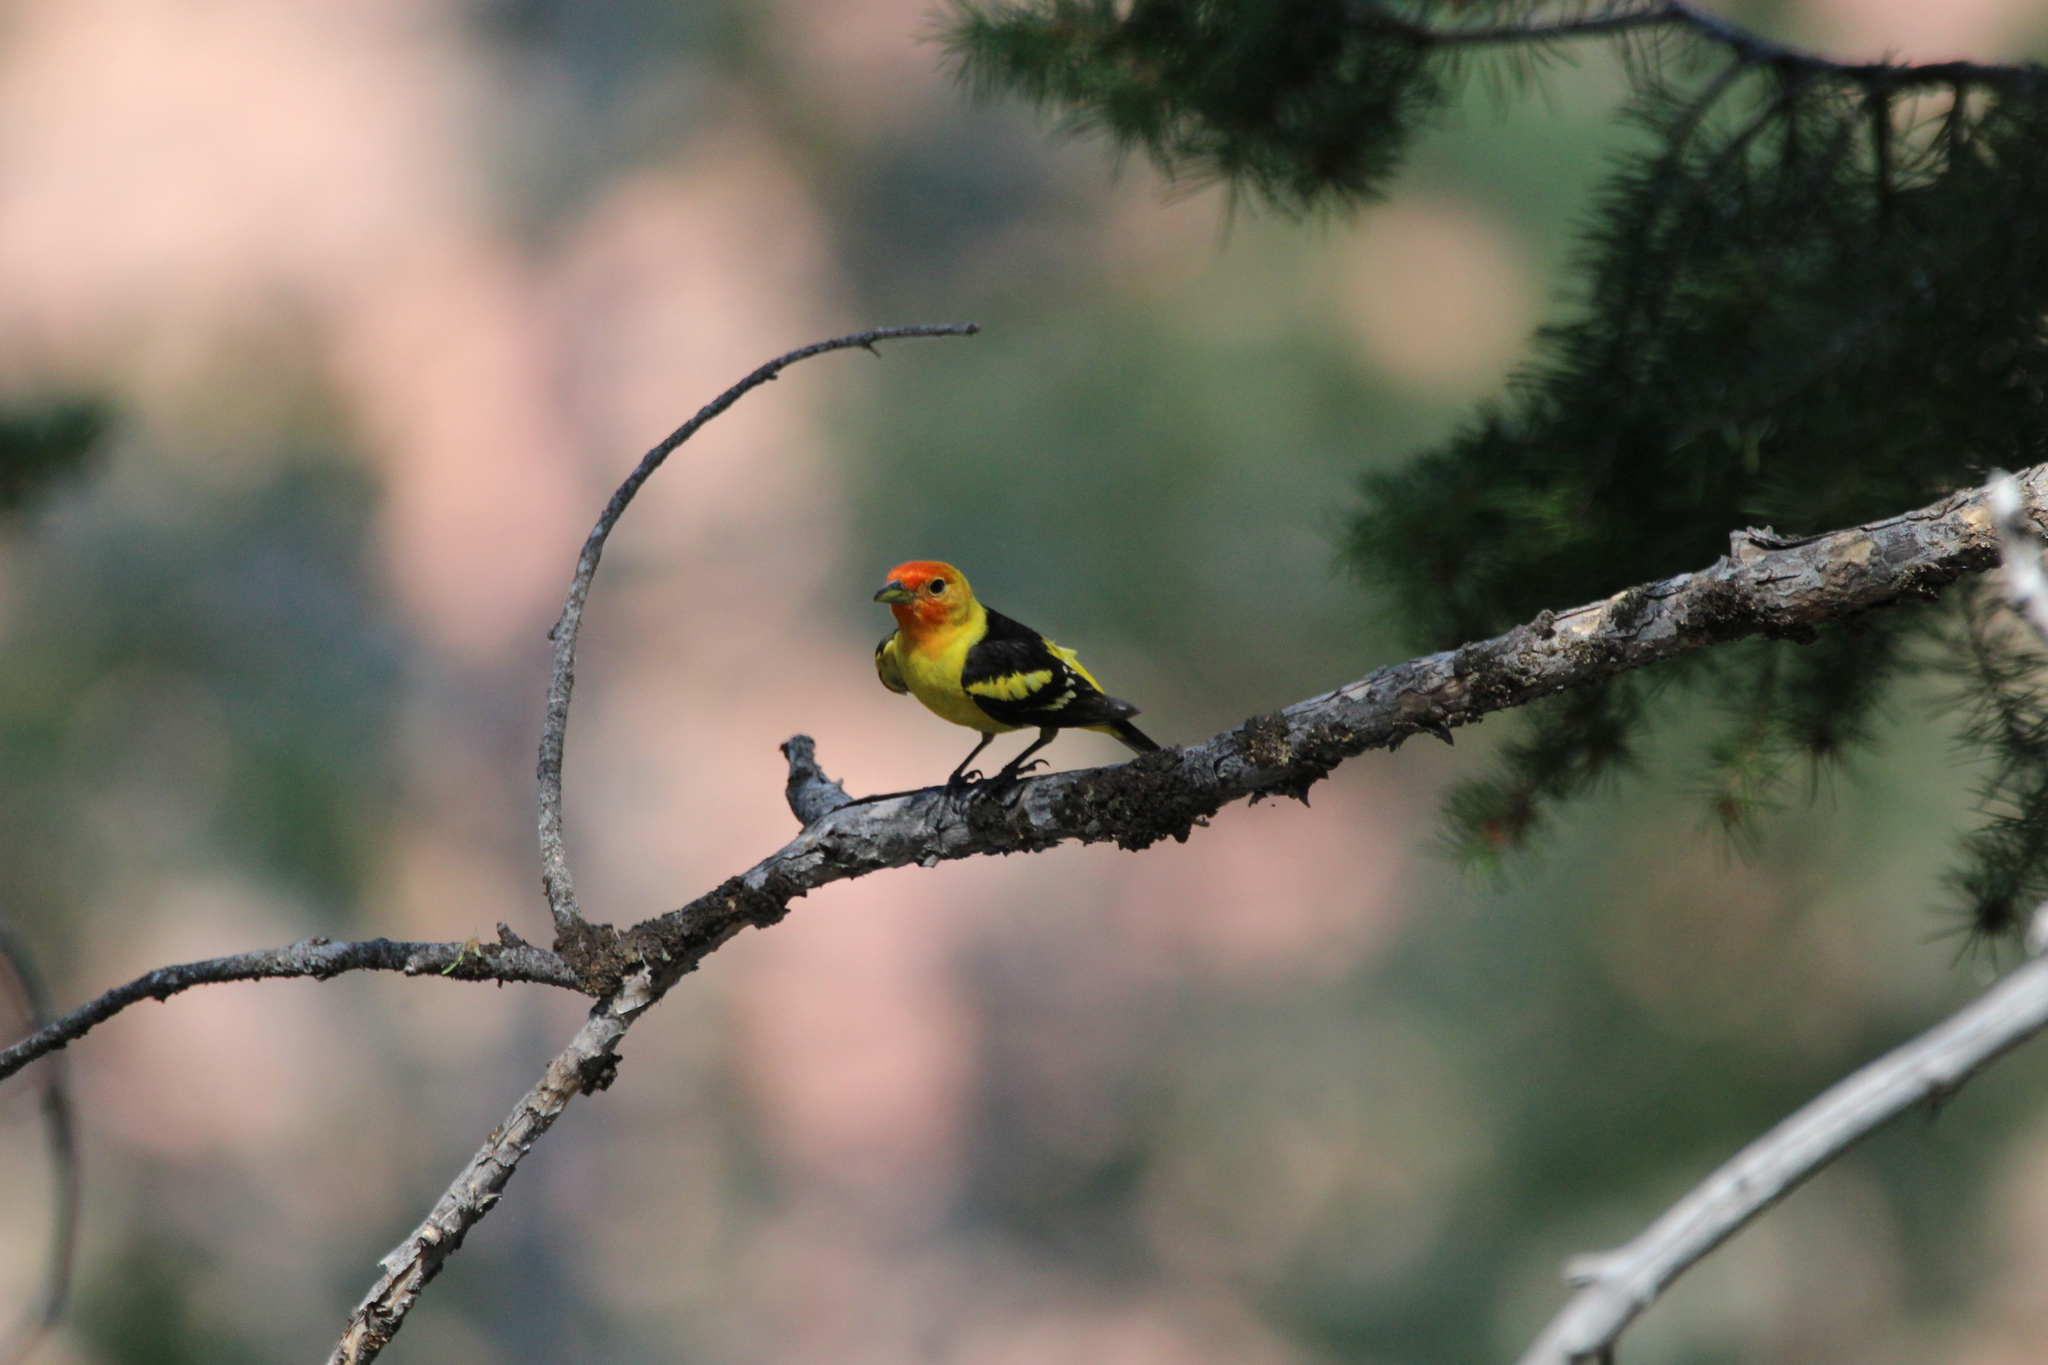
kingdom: Animalia
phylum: Chordata
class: Aves
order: Passeriformes
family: Cardinalidae
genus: Piranga
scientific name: Piranga ludoviciana
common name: Western tanager
